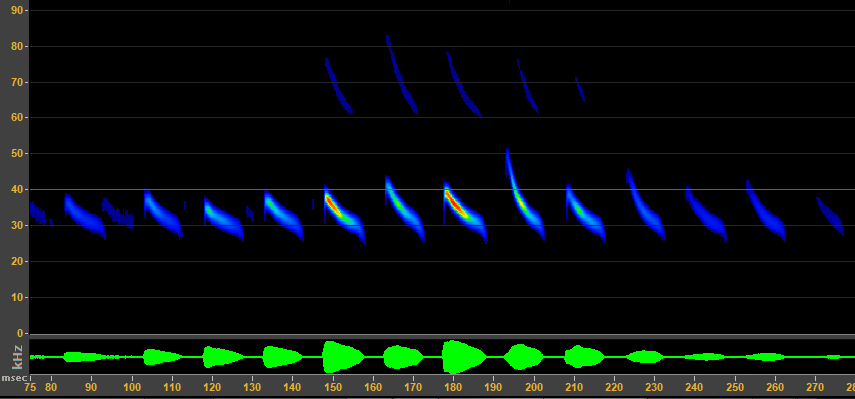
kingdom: Animalia
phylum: Chordata
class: Mammalia
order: Chiroptera
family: Molossidae
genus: Tadarida
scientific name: Tadarida brasiliensis
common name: Mexican free-tailed bat
